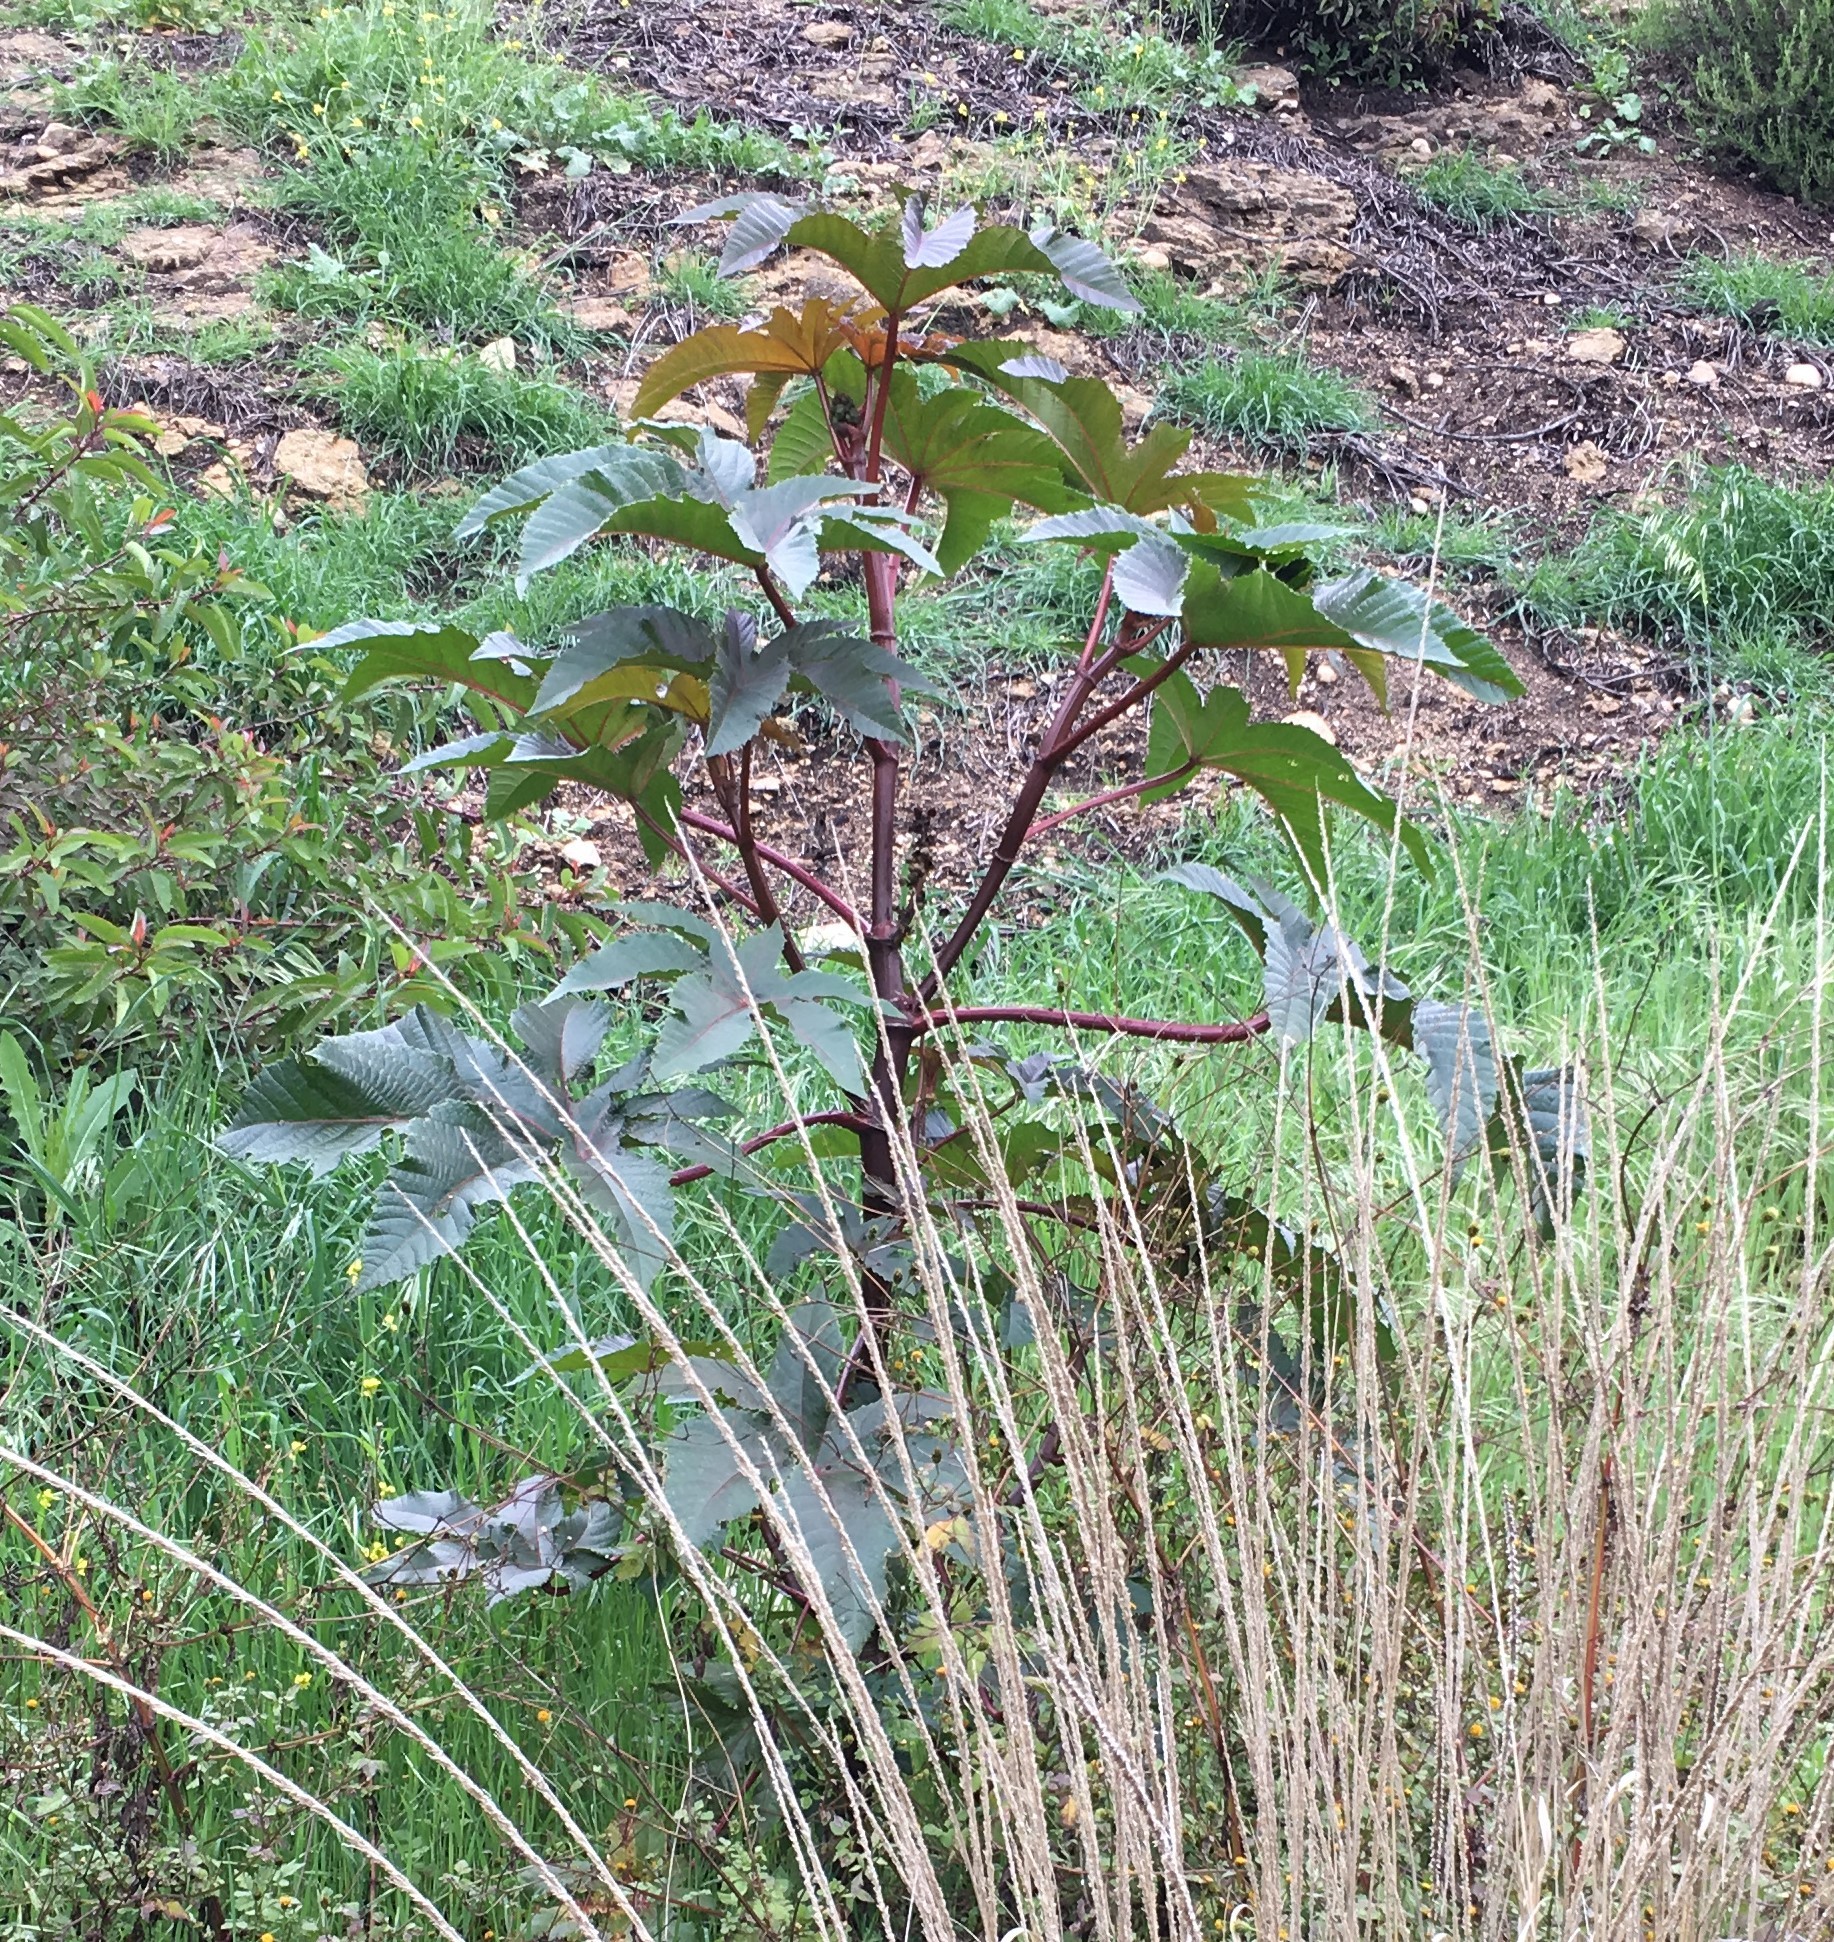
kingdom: Plantae
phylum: Tracheophyta
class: Magnoliopsida
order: Malpighiales
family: Euphorbiaceae
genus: Ricinus
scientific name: Ricinus communis
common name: Castor-oil-plant
